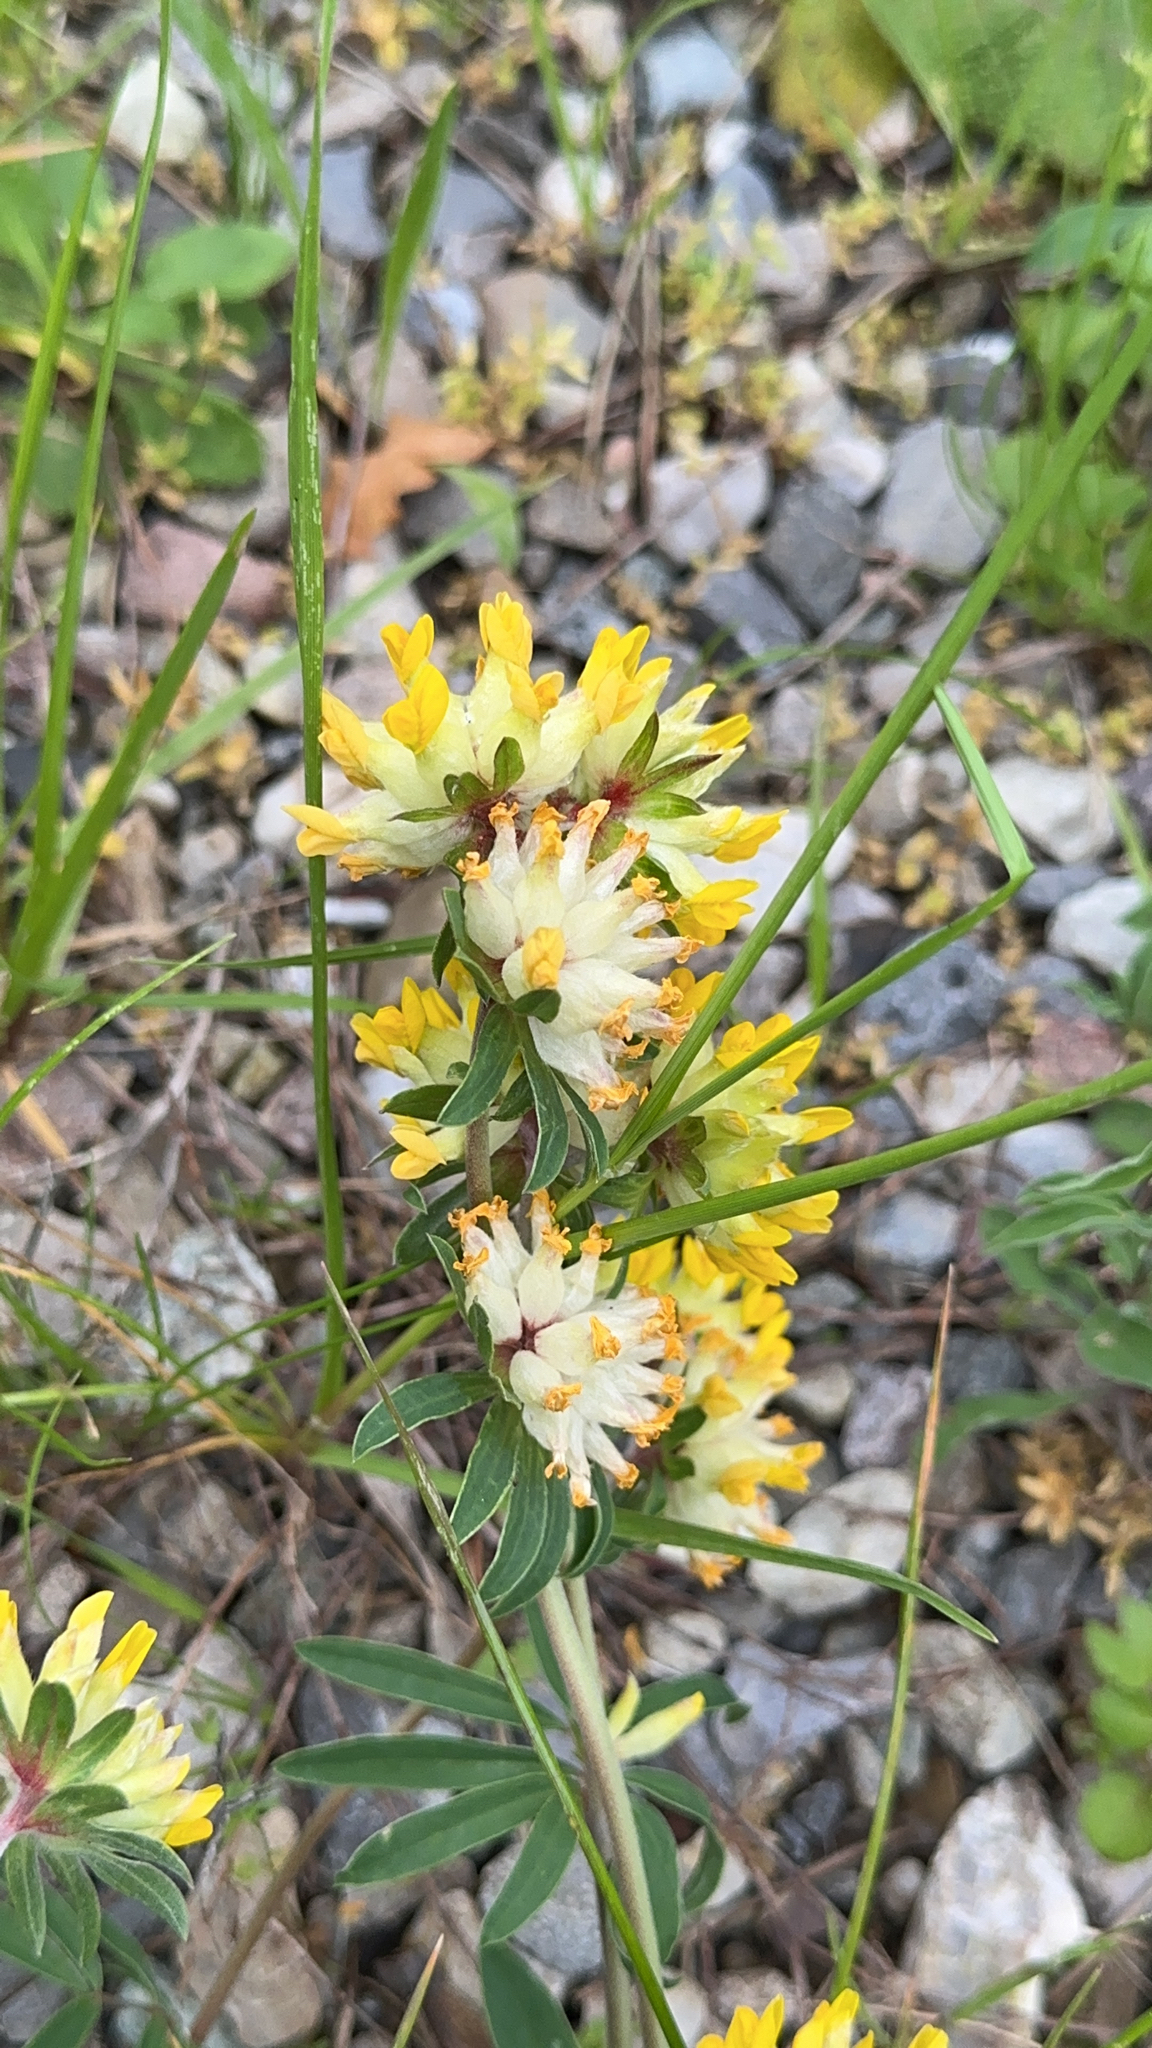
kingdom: Plantae
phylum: Tracheophyta
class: Magnoliopsida
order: Fabales
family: Fabaceae
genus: Anthyllis
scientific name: Anthyllis vulneraria
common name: Kidney vetch
